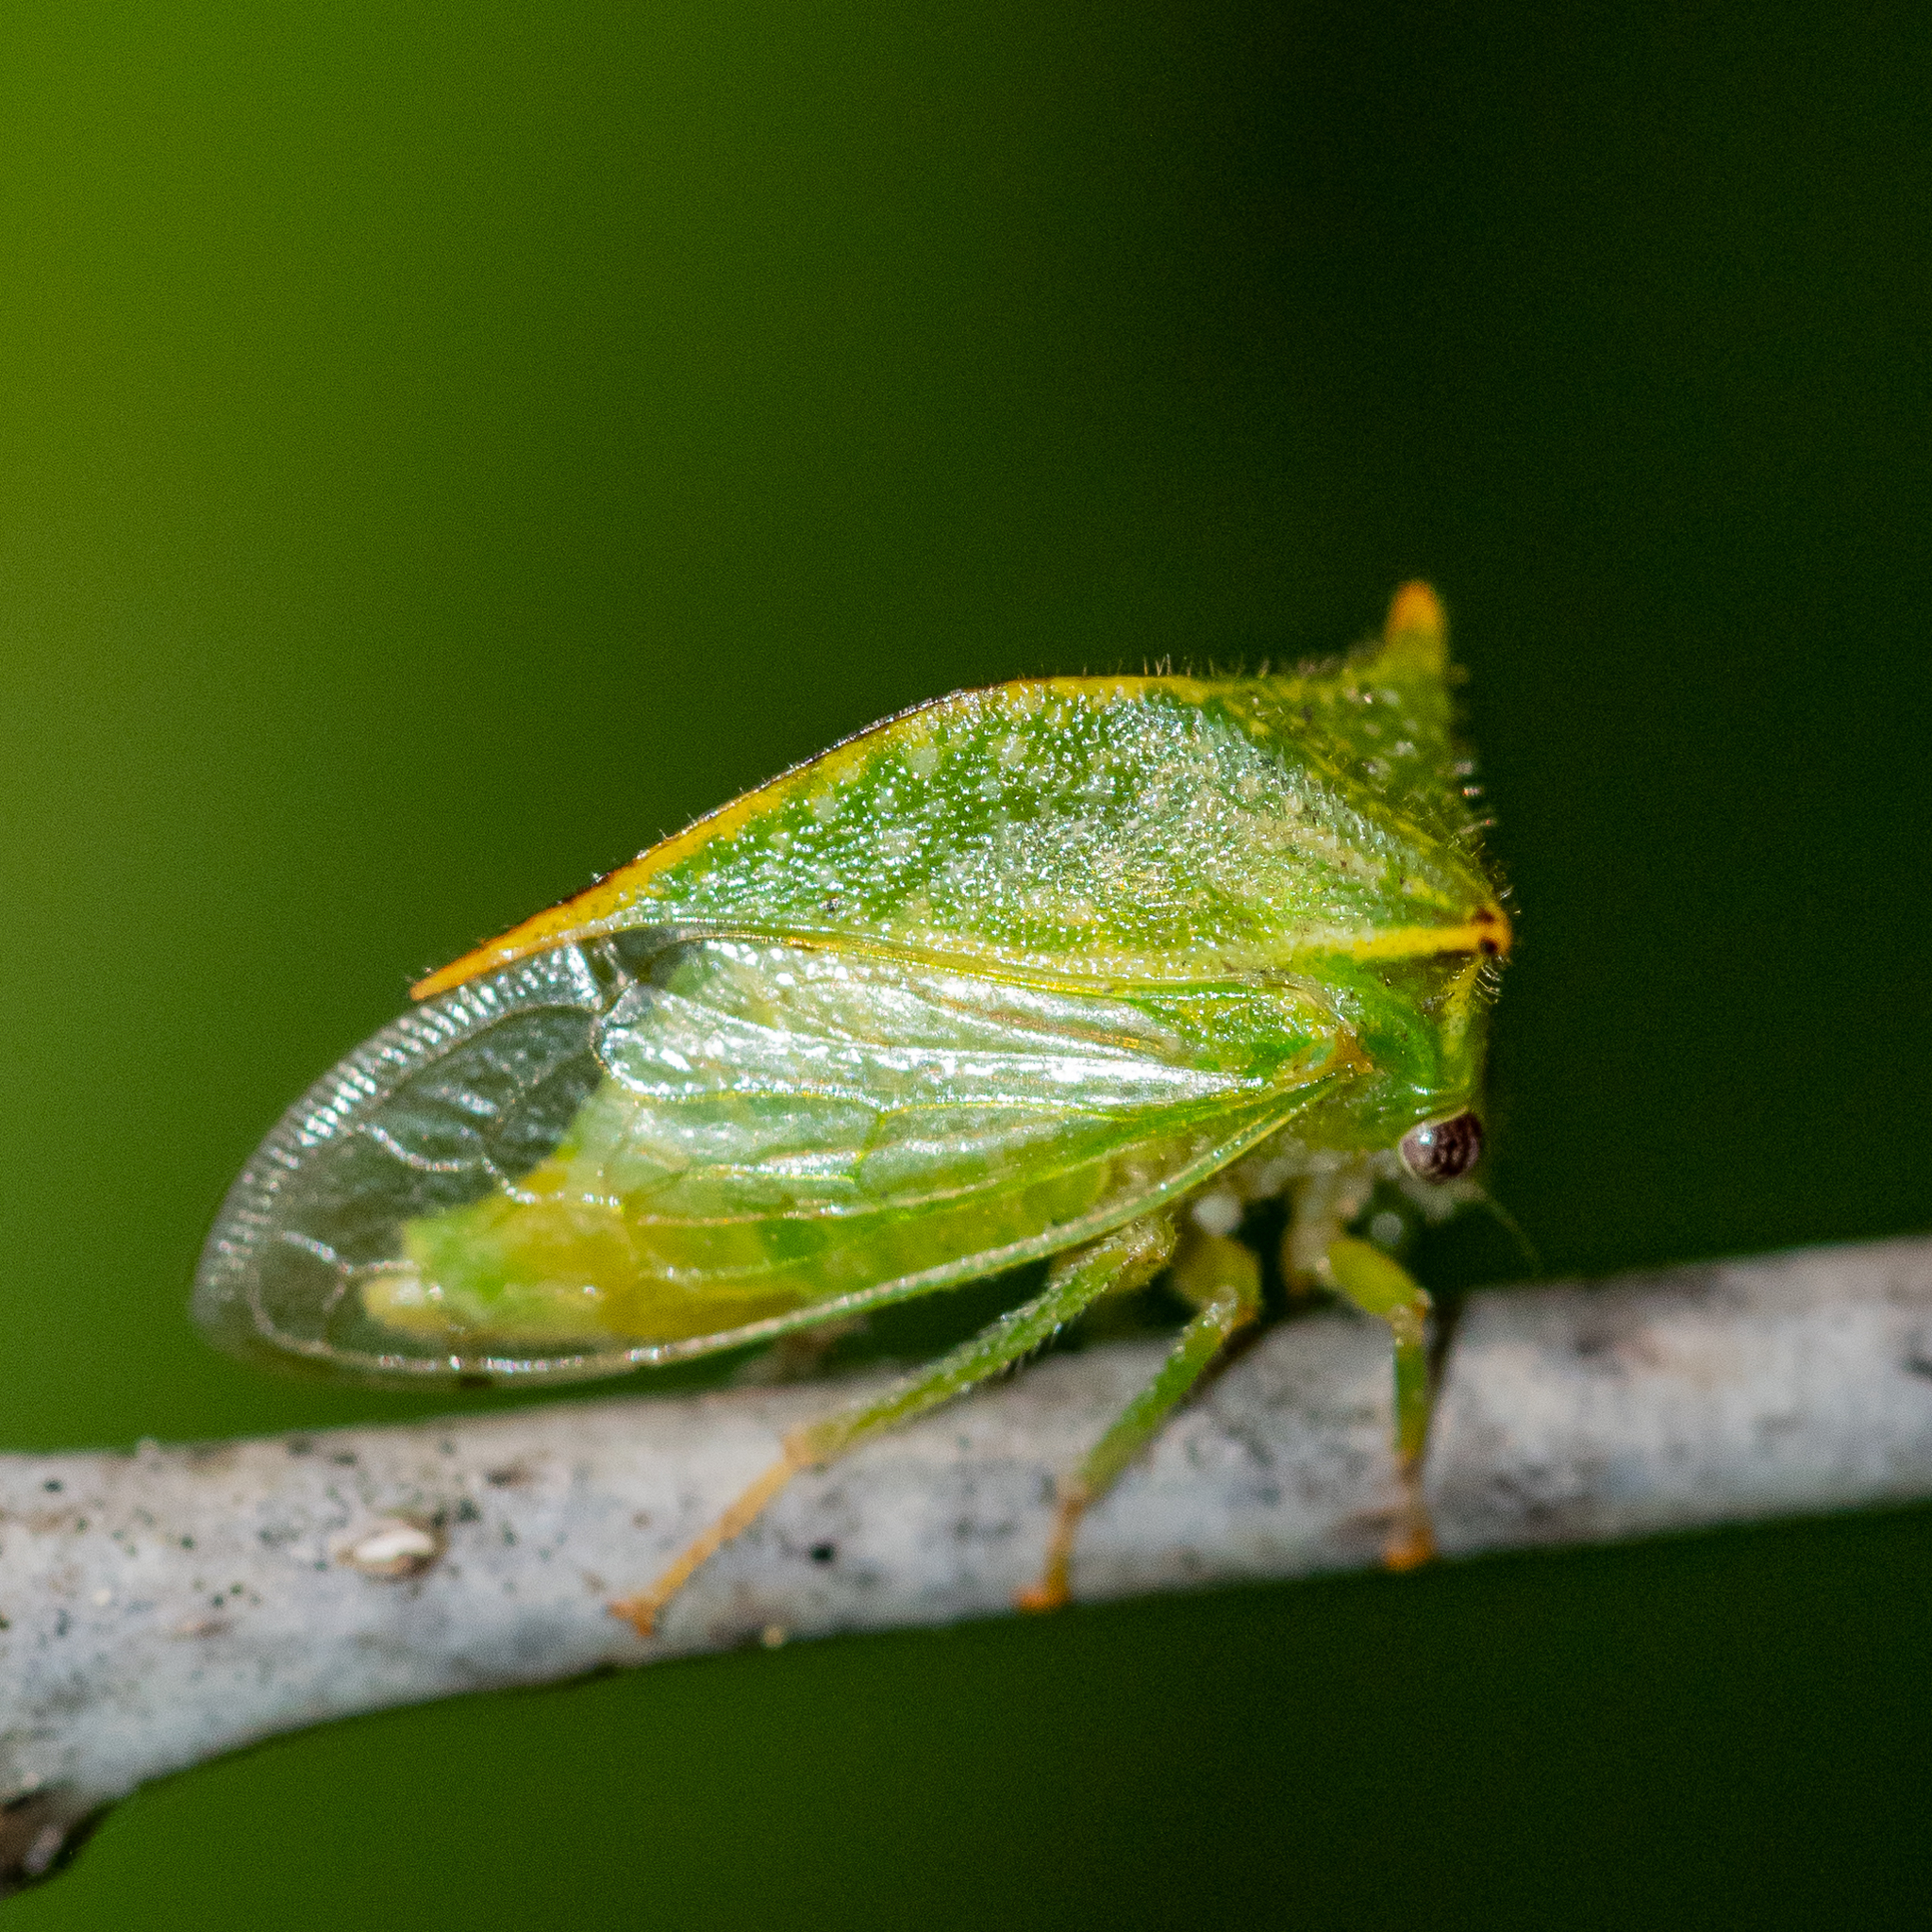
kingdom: Animalia
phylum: Arthropoda
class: Insecta
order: Hemiptera
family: Membracidae
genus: Hadrophallus
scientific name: Hadrophallus
